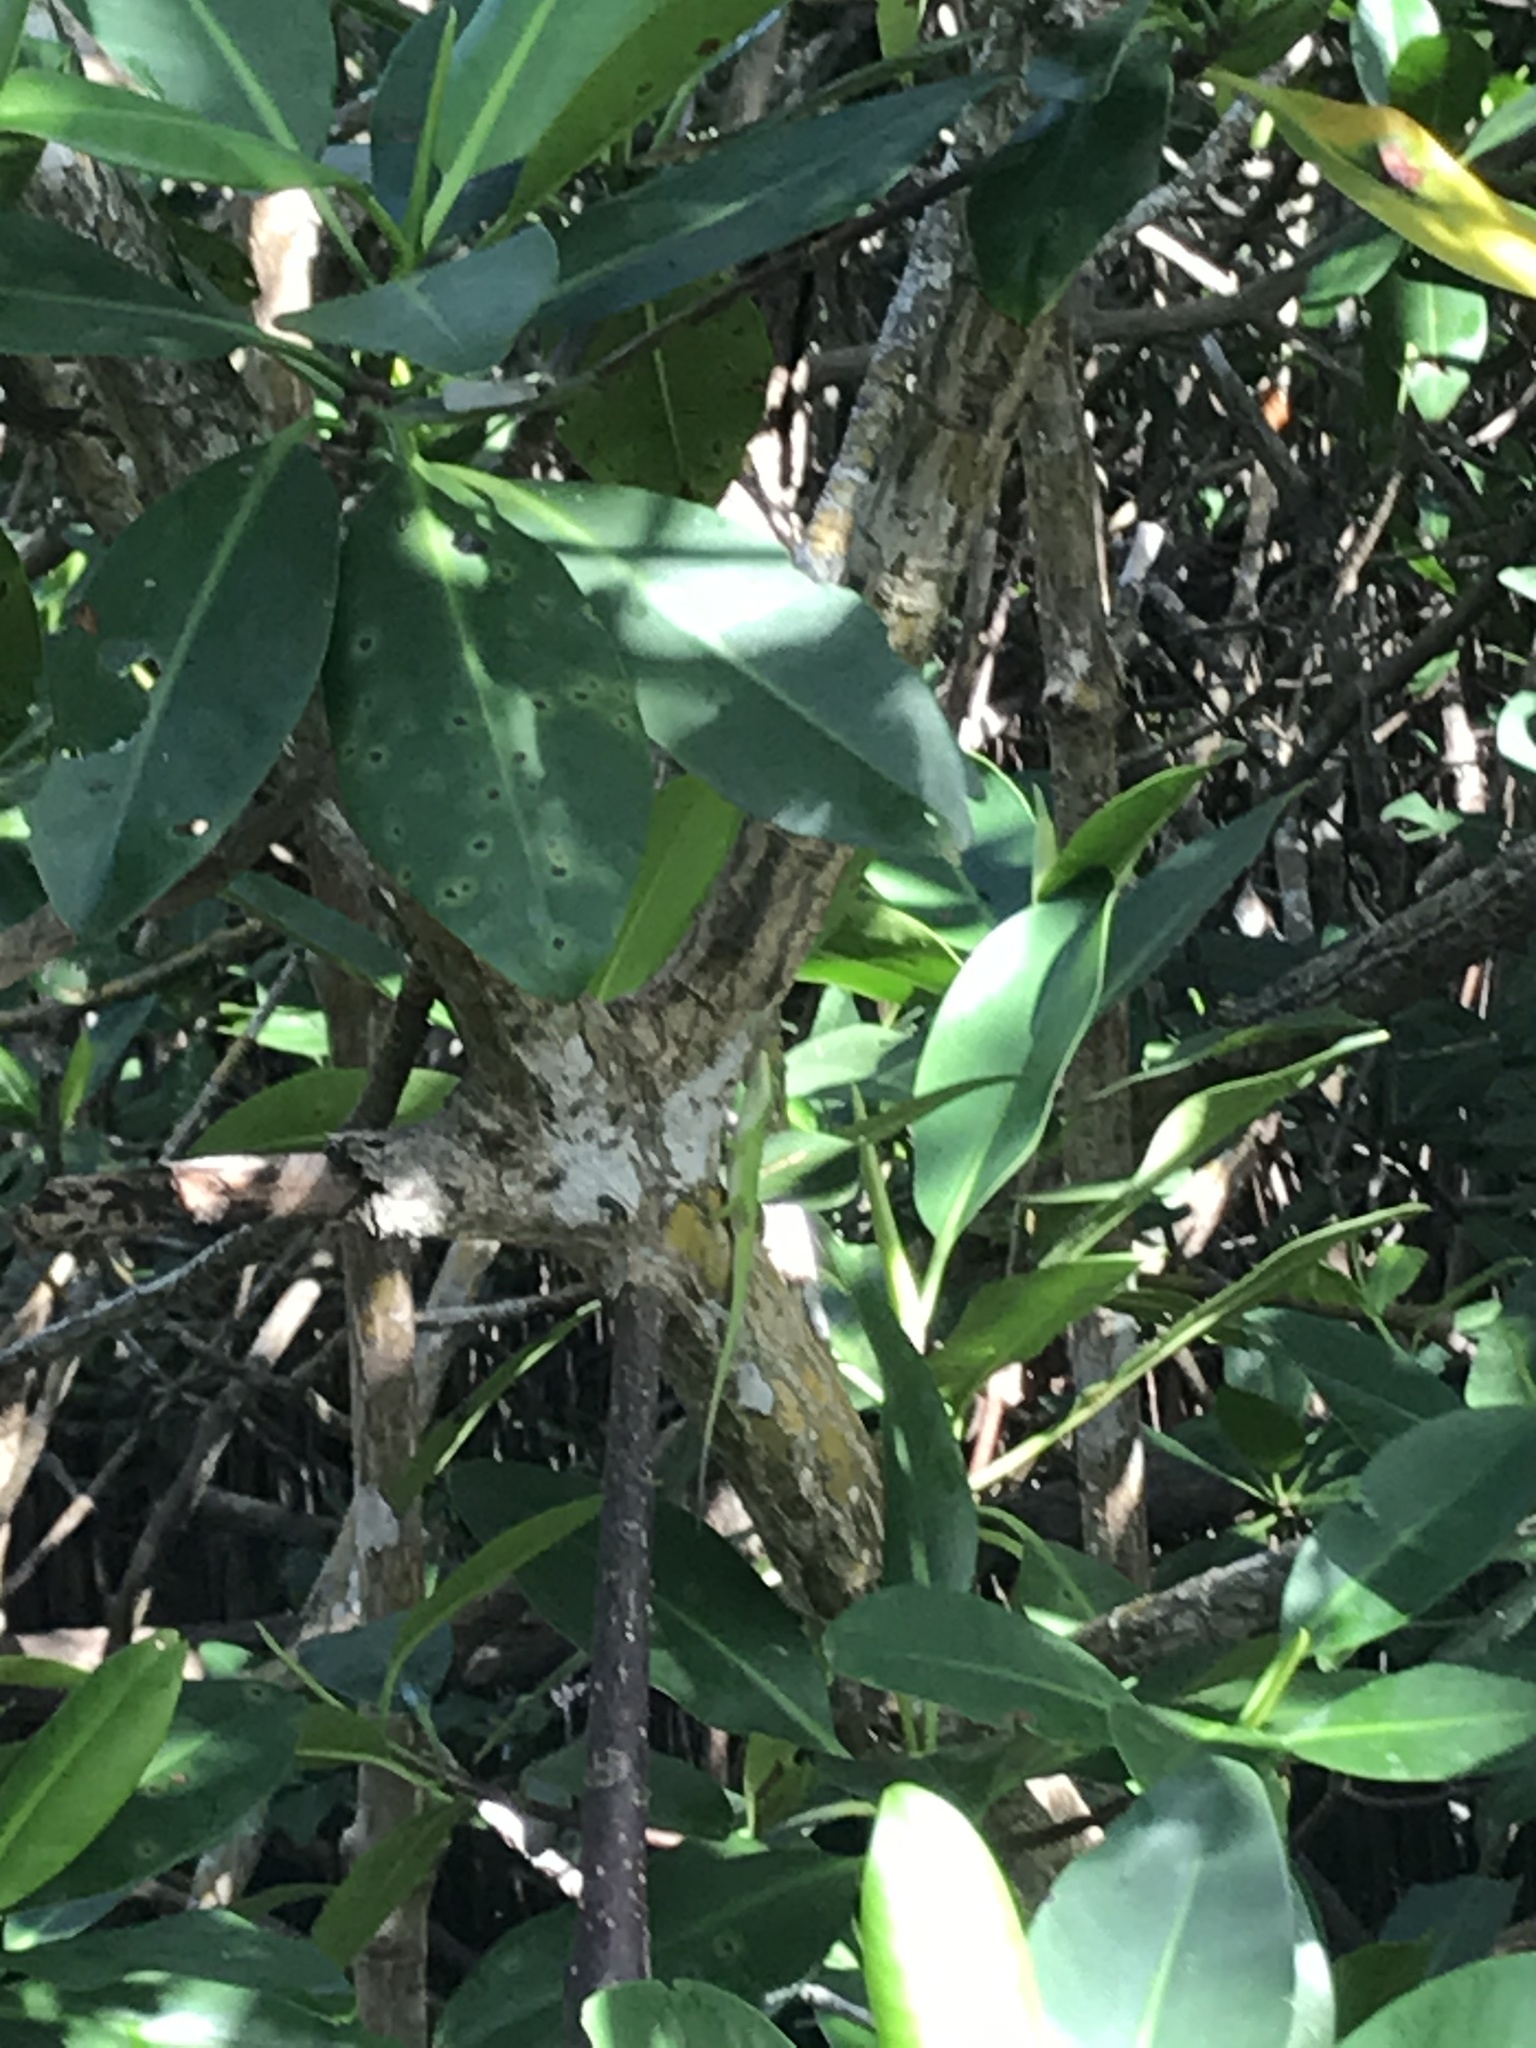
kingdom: Plantae
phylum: Tracheophyta
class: Magnoliopsida
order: Malpighiales
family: Rhizophoraceae
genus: Rhizophora
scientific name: Rhizophora mangle
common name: Red mangrove
